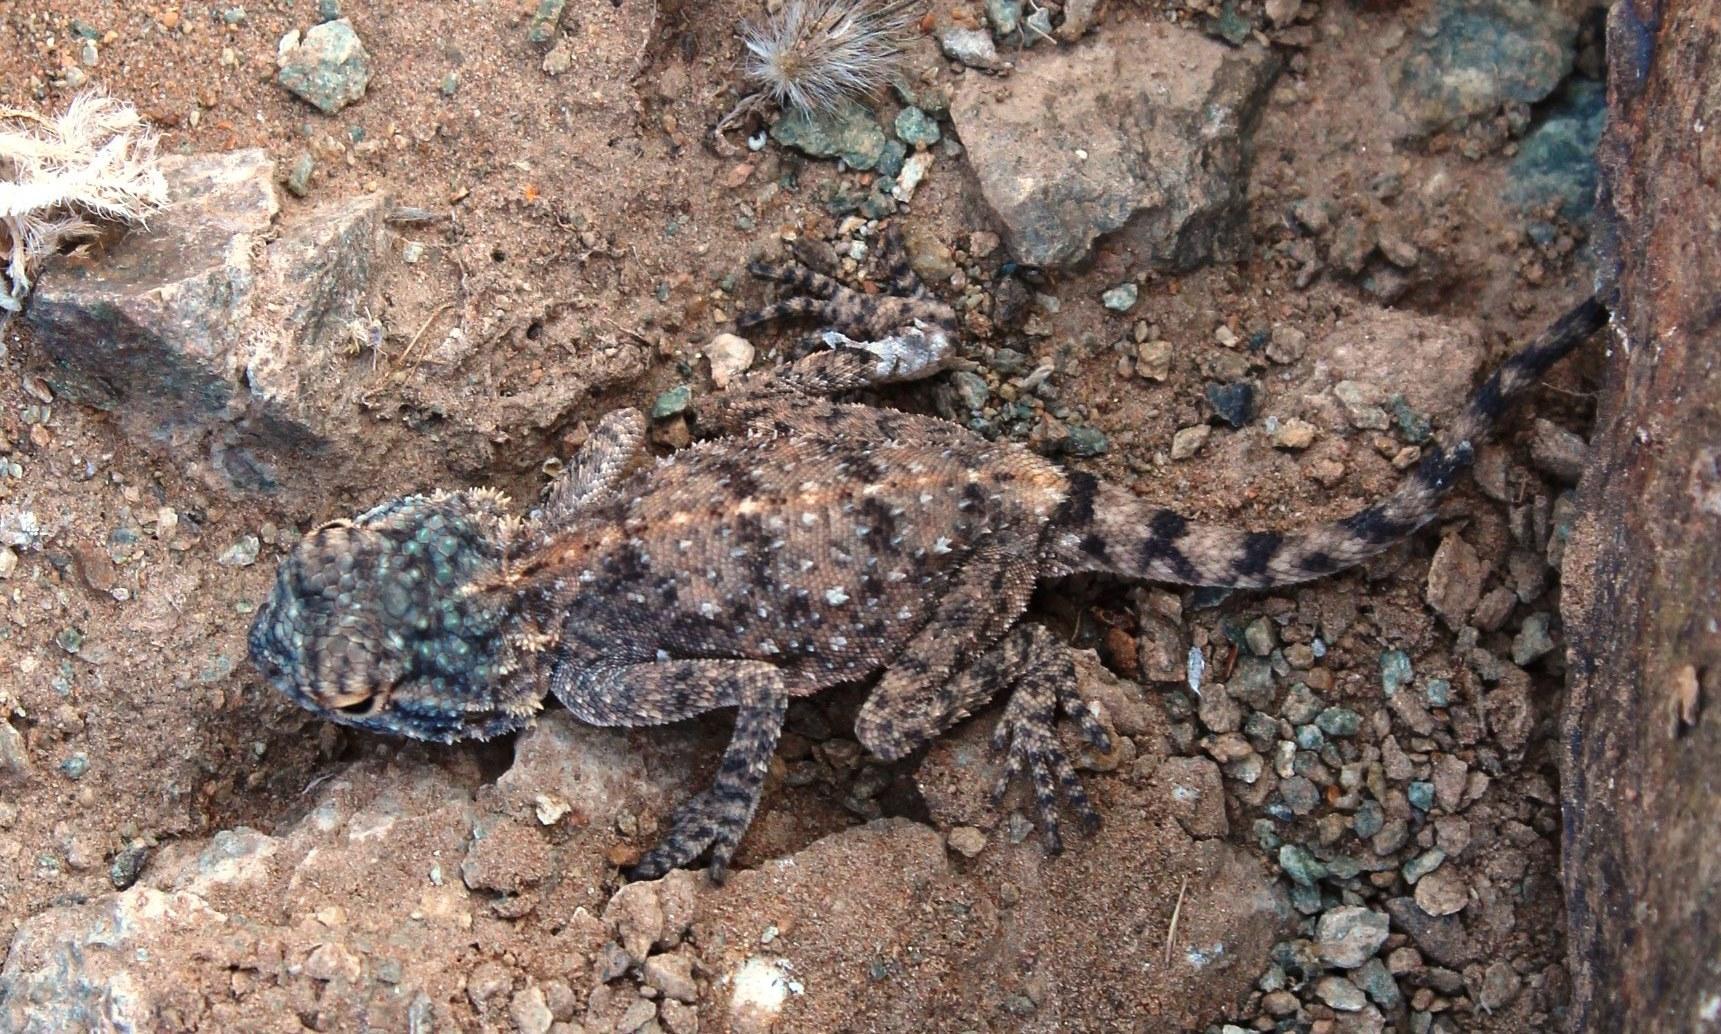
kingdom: Animalia
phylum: Chordata
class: Squamata
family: Agamidae
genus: Agama
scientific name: Agama anchietae
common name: Anchieta's agama
